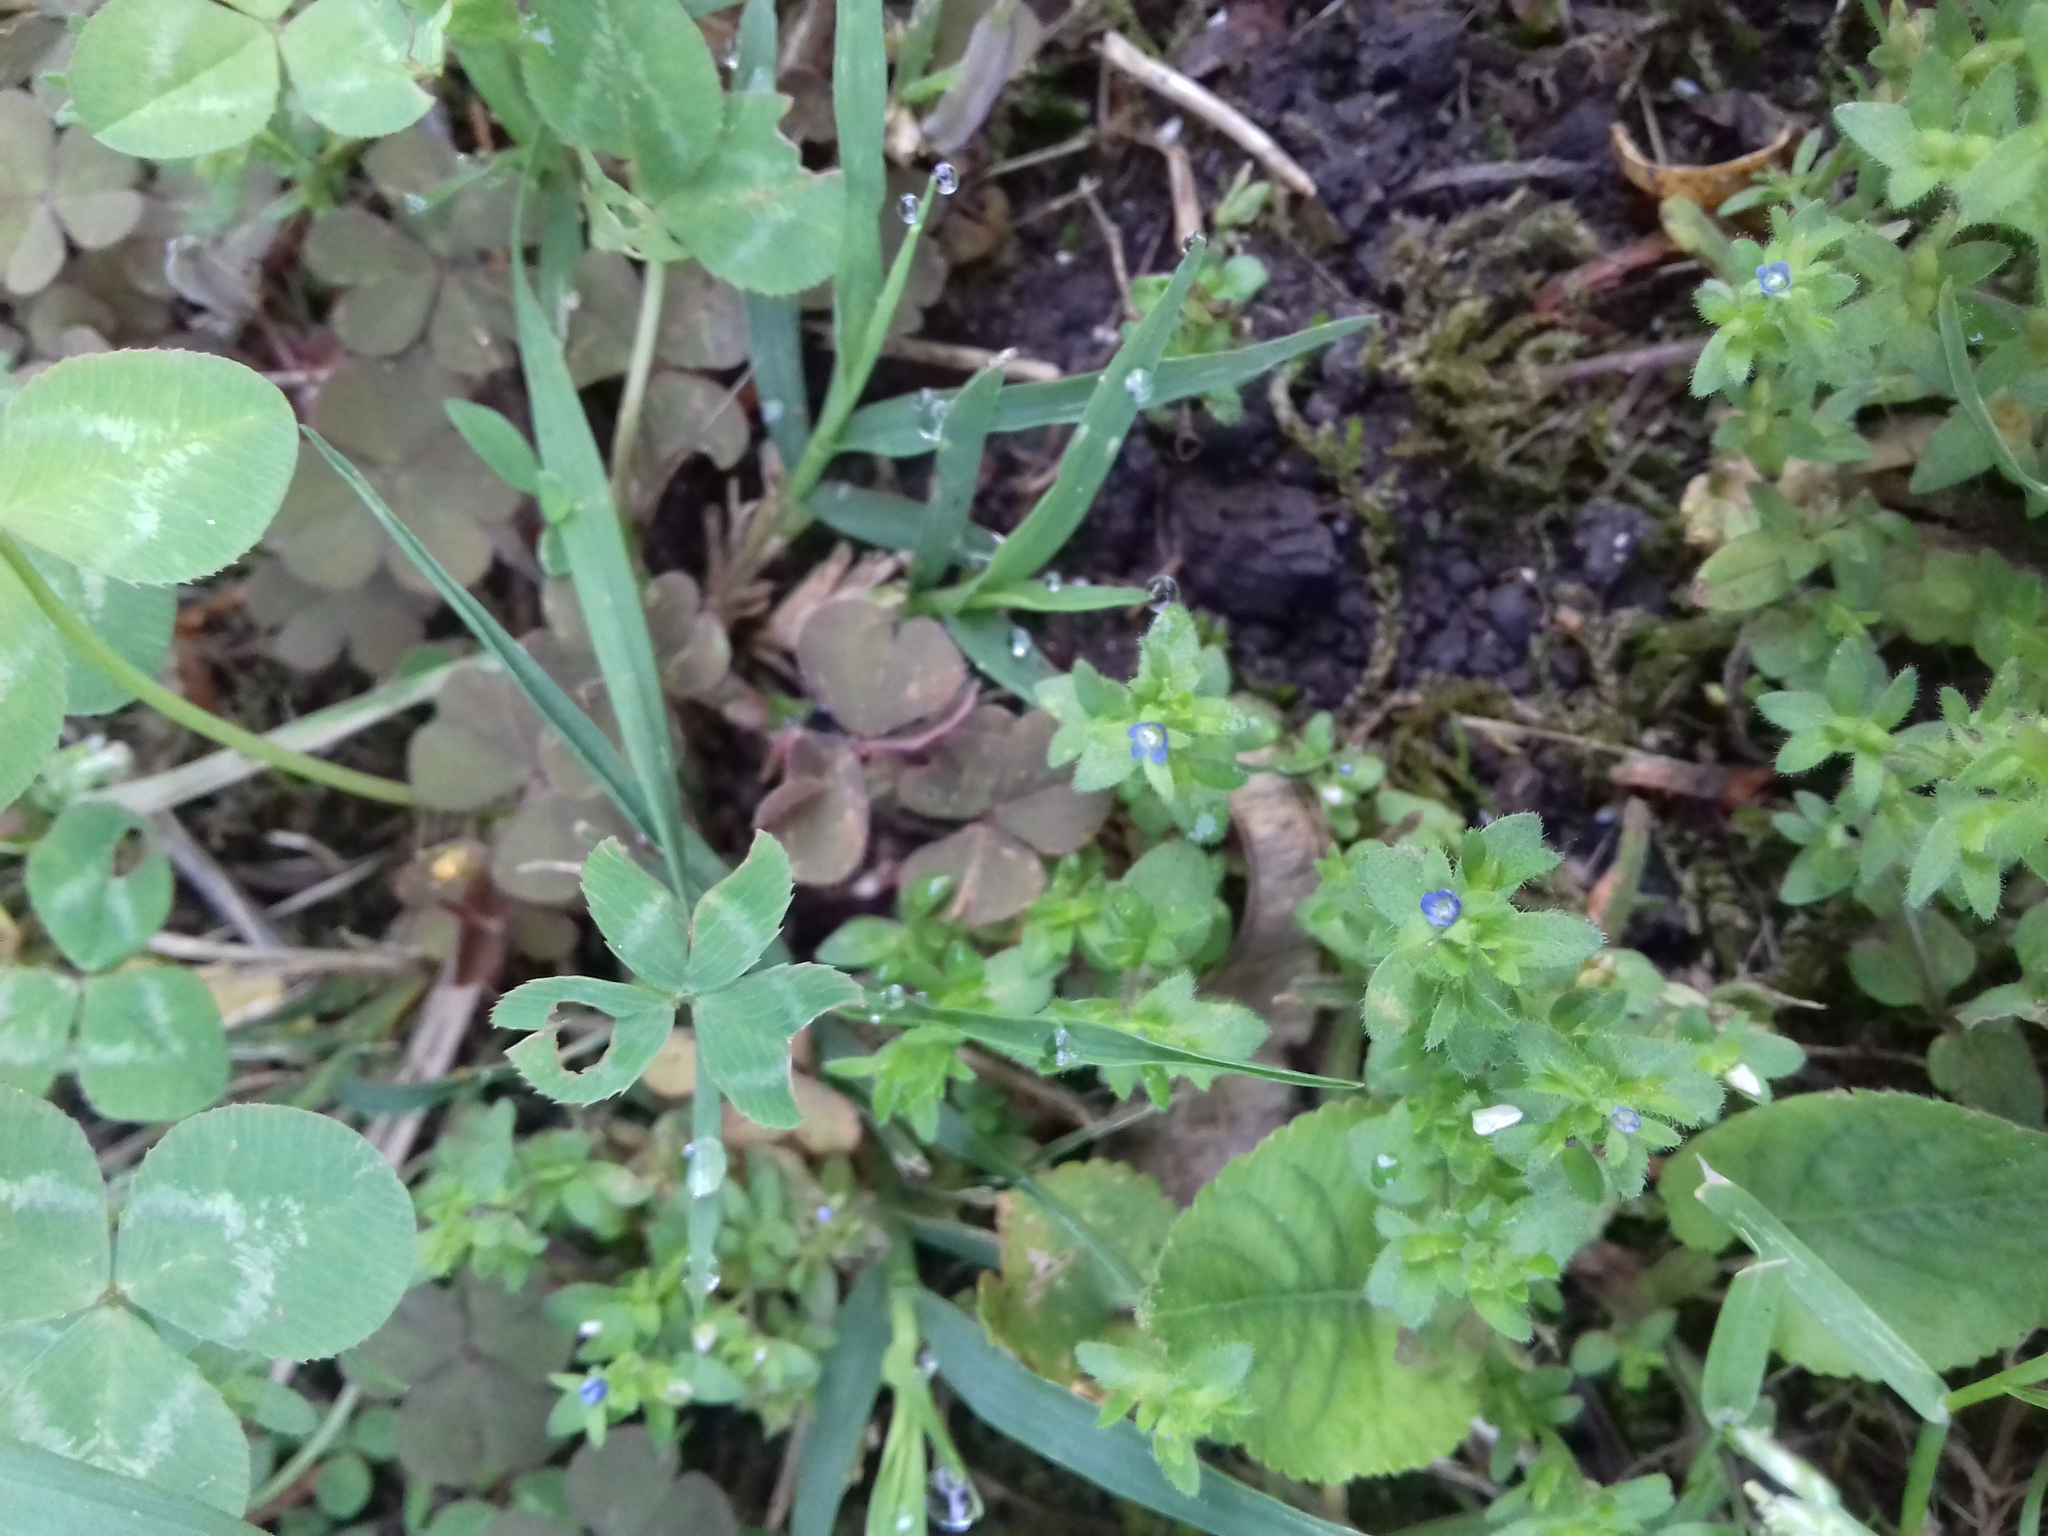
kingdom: Plantae
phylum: Tracheophyta
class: Magnoliopsida
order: Lamiales
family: Plantaginaceae
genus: Veronica
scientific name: Veronica arvensis
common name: Corn speedwell
